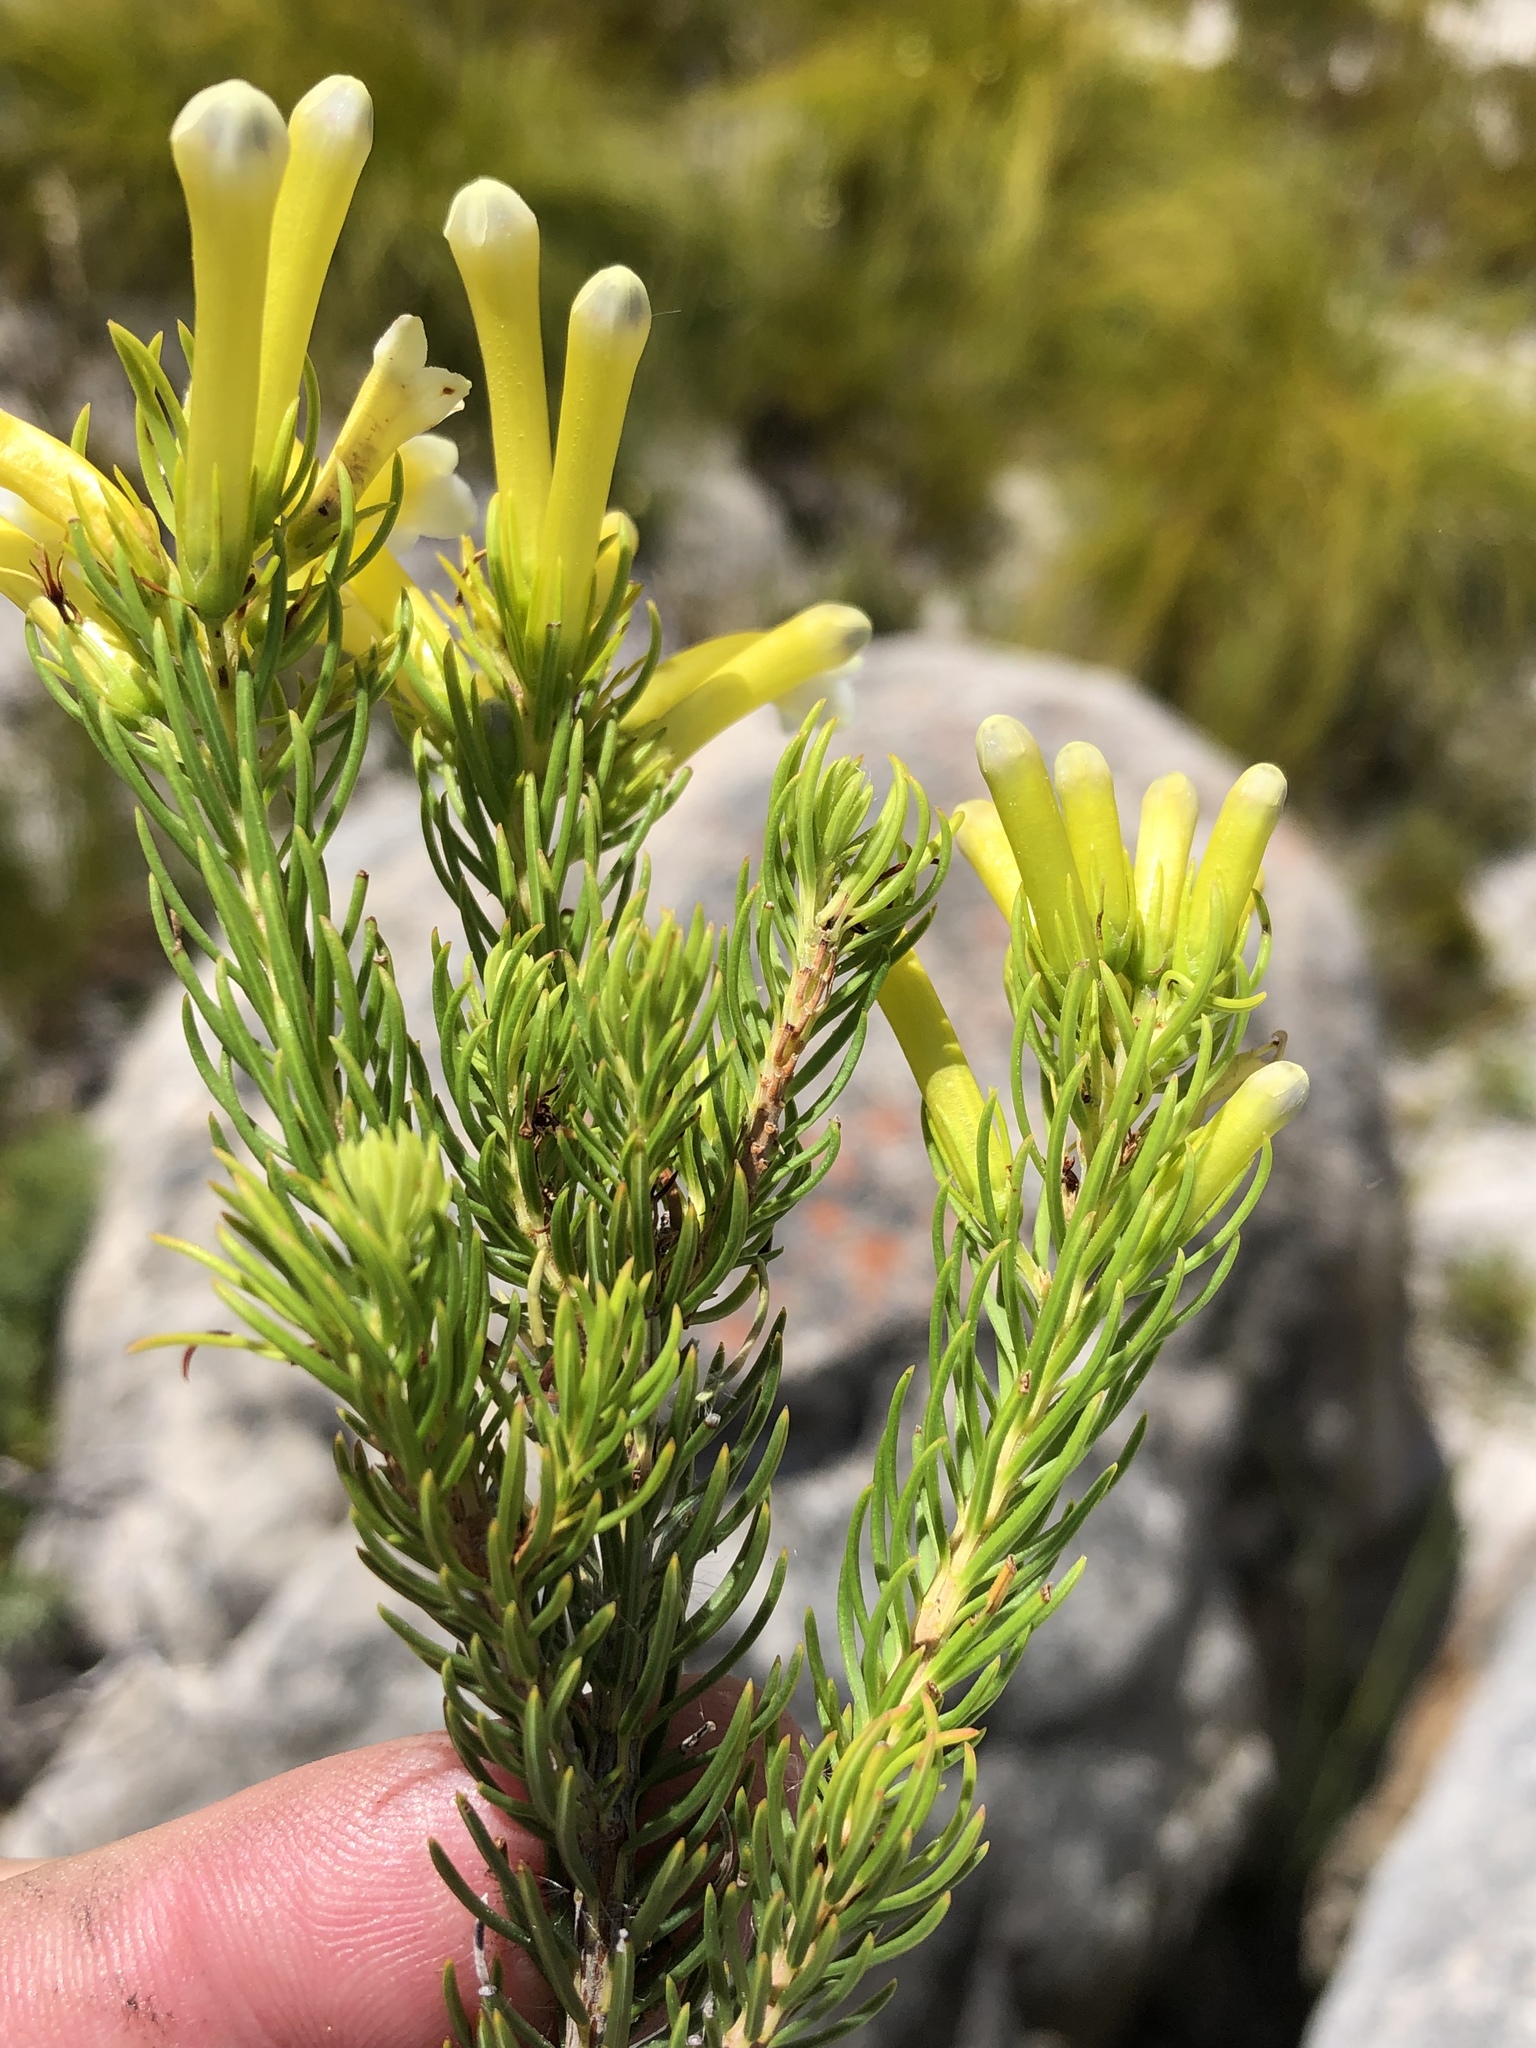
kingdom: Plantae
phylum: Tracheophyta
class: Magnoliopsida
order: Ericales
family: Ericaceae
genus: Erica
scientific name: Erica pinea
